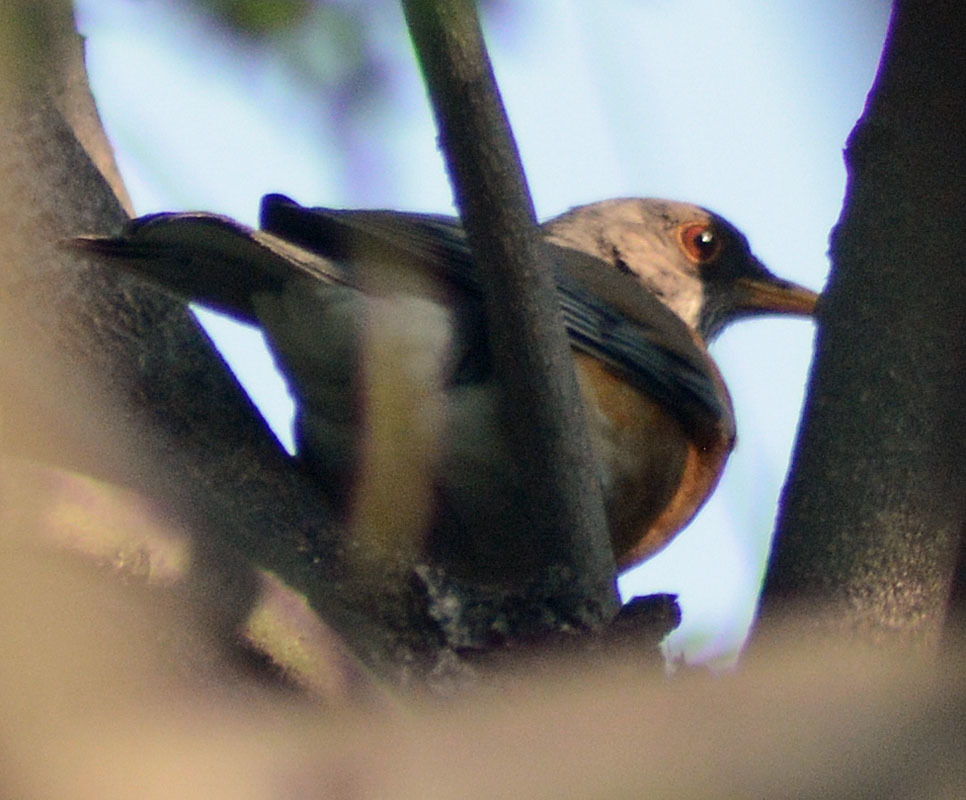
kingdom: Animalia
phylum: Chordata
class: Aves
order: Passeriformes
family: Turdidae
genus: Turdus
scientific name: Turdus rufopalliatus
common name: Rufous-backed robin
